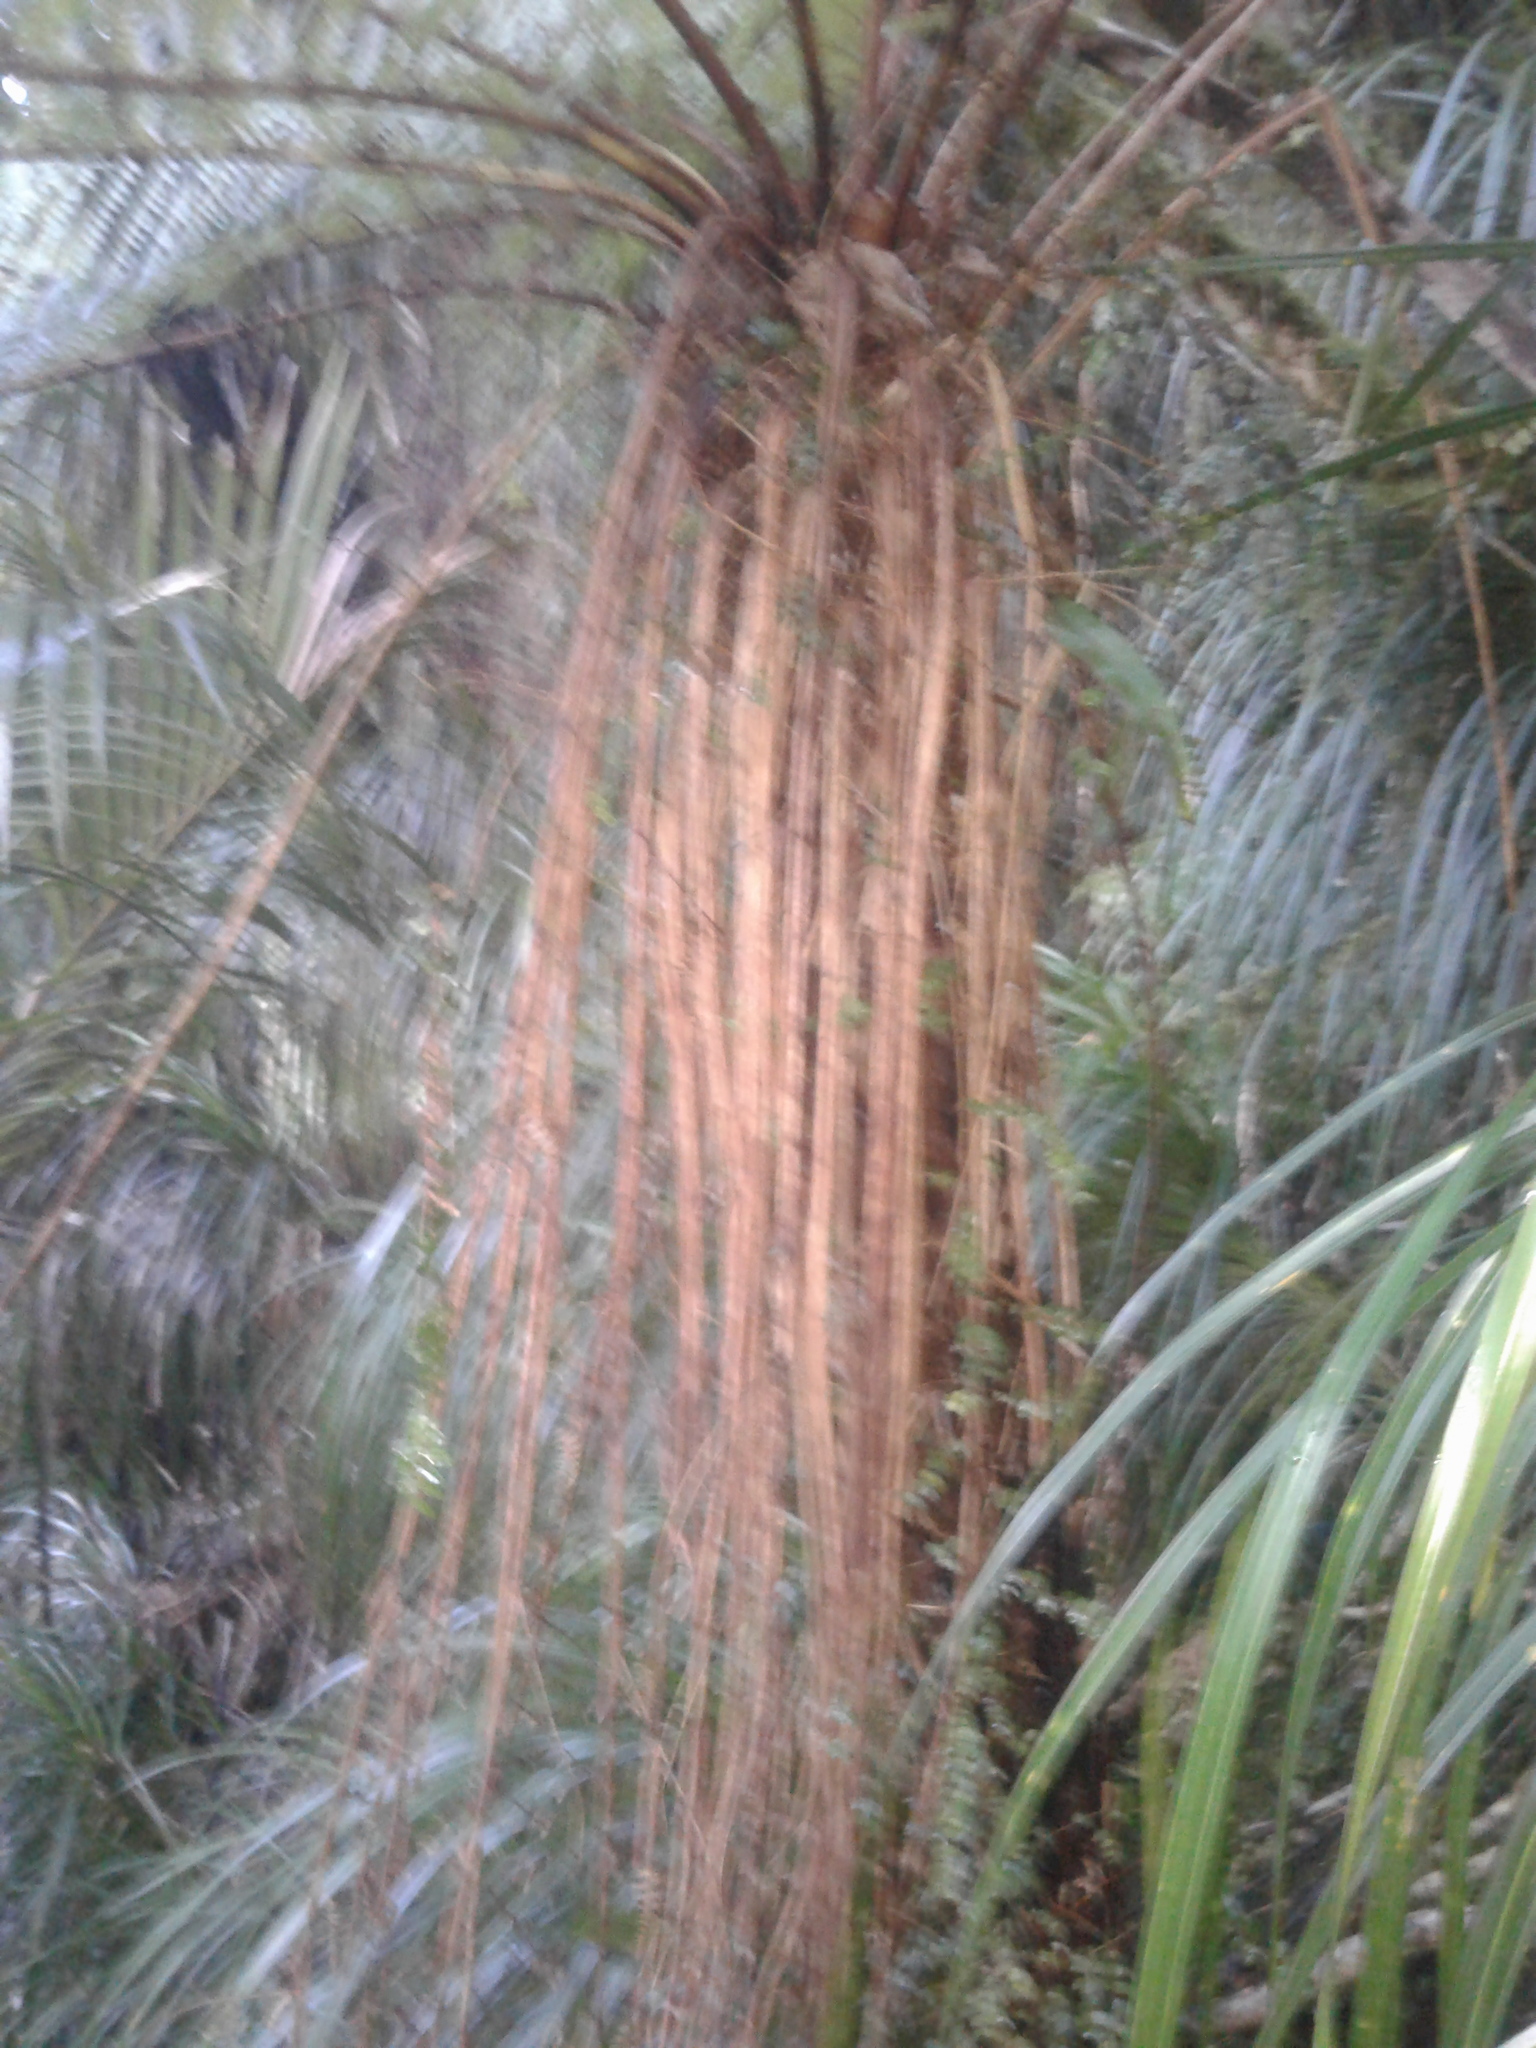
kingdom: Plantae
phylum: Tracheophyta
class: Polypodiopsida
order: Cyatheales
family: Cyatheaceae
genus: Alsophila
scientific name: Alsophila smithii
